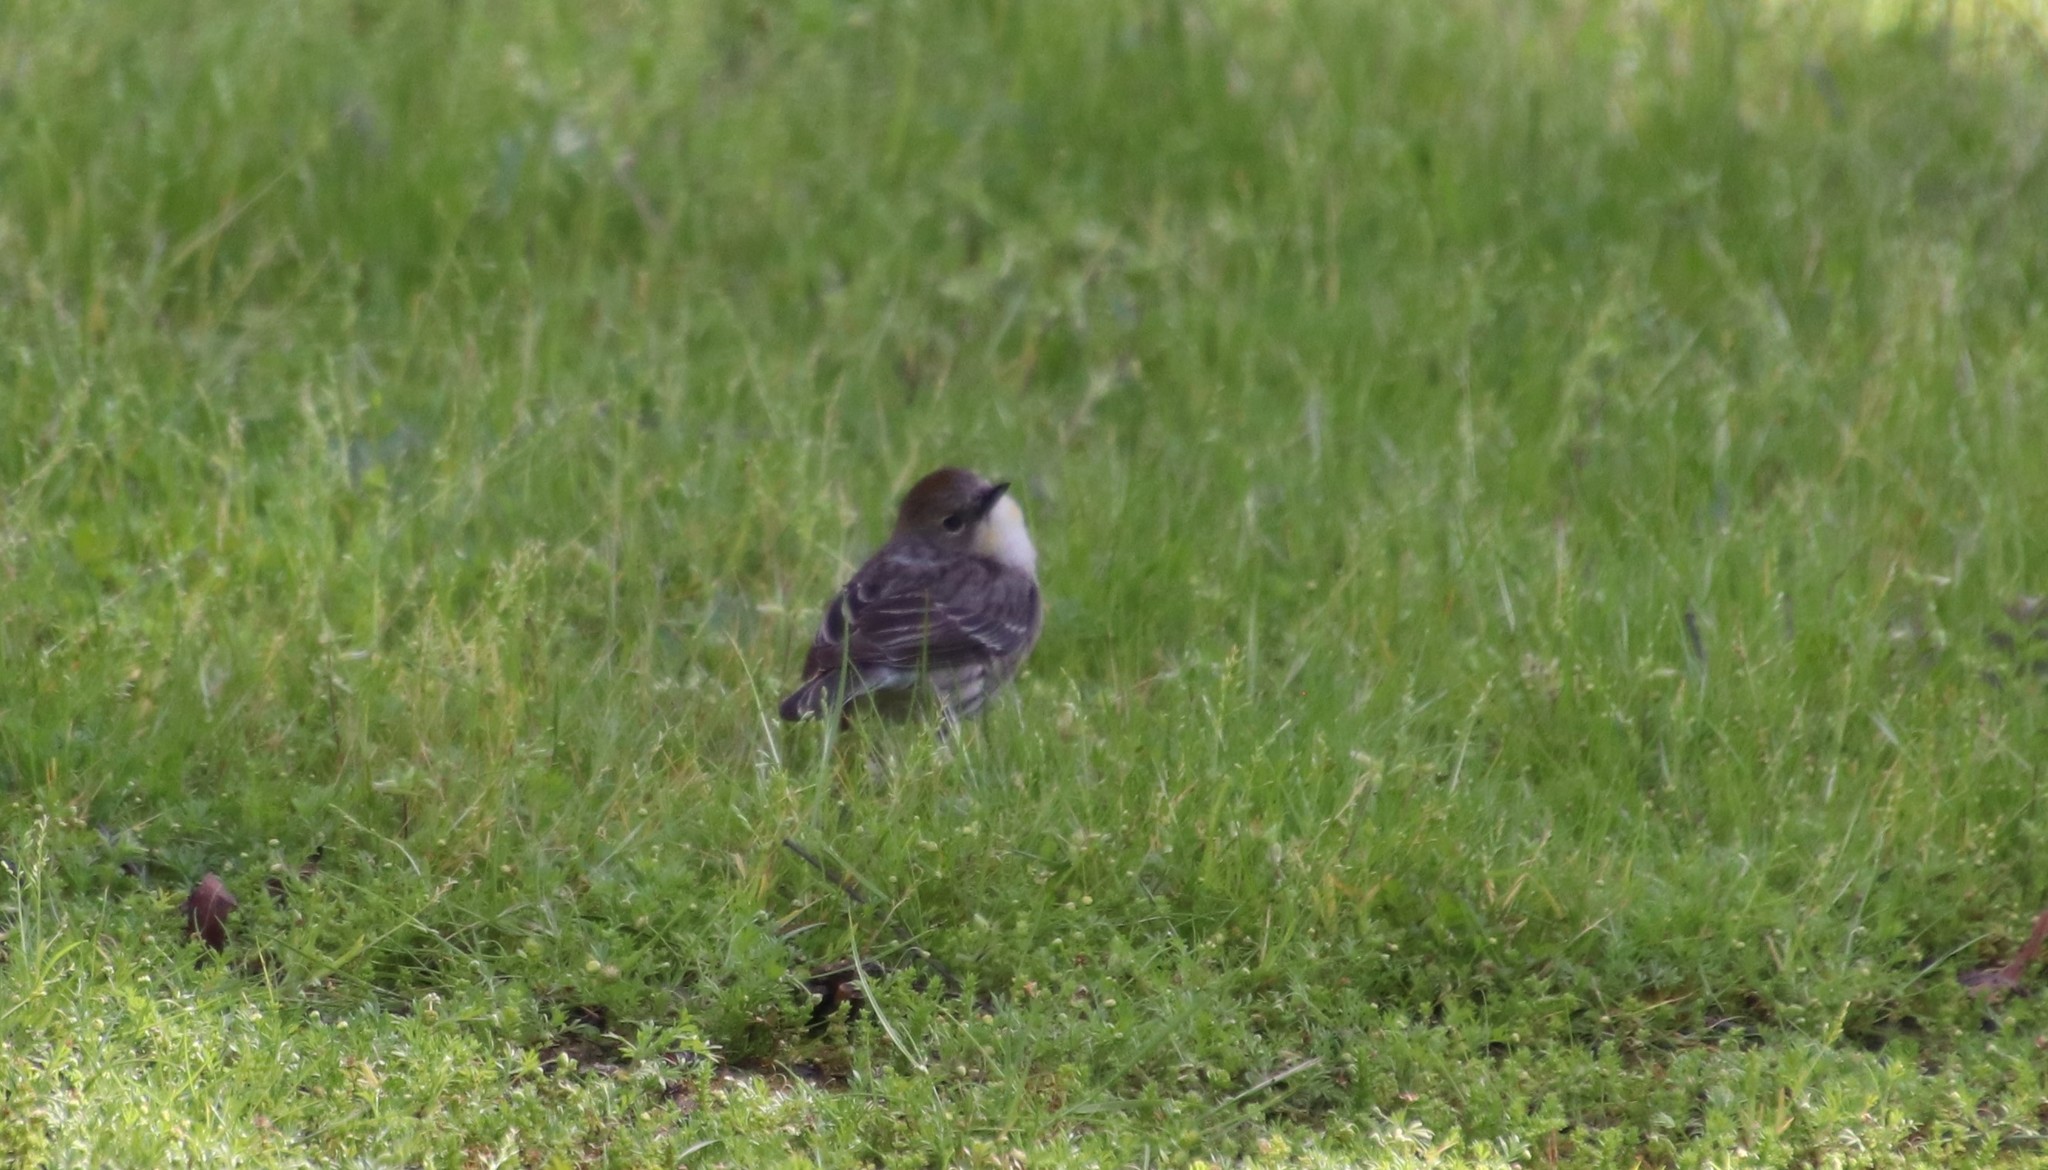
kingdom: Animalia
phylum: Chordata
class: Aves
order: Passeriformes
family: Parulidae
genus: Setophaga
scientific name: Setophaga coronata
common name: Myrtle warbler
